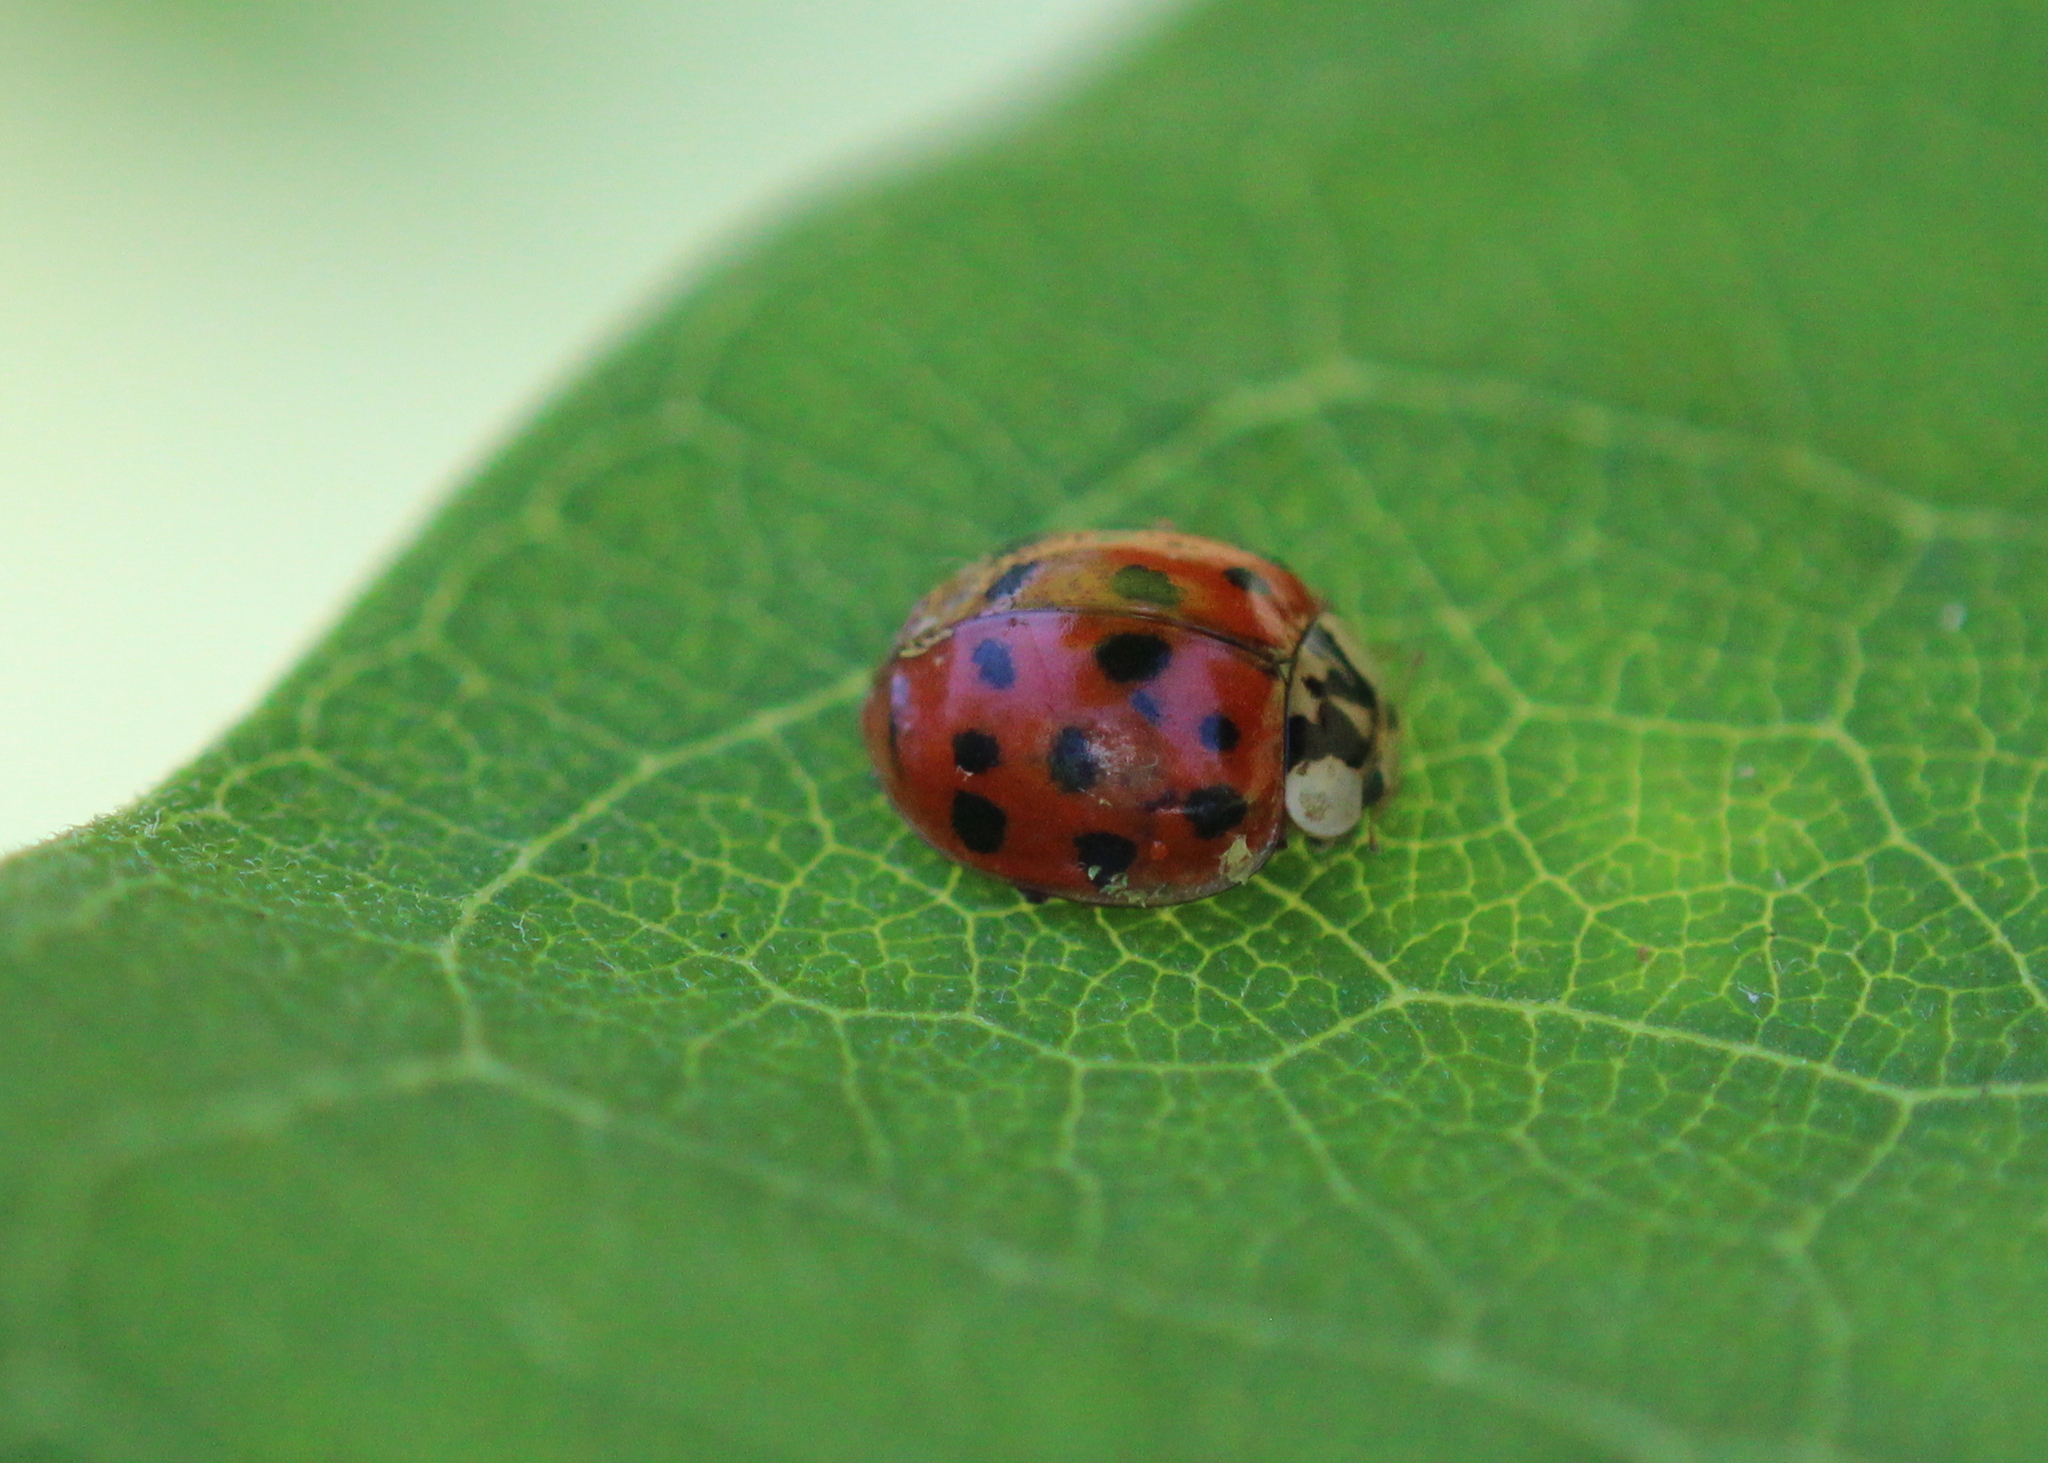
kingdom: Fungi
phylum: Ascomycota
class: Laboulbeniomycetes
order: Laboulbeniales
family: Laboulbeniaceae
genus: Hesperomyces
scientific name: Hesperomyces harmoniae
